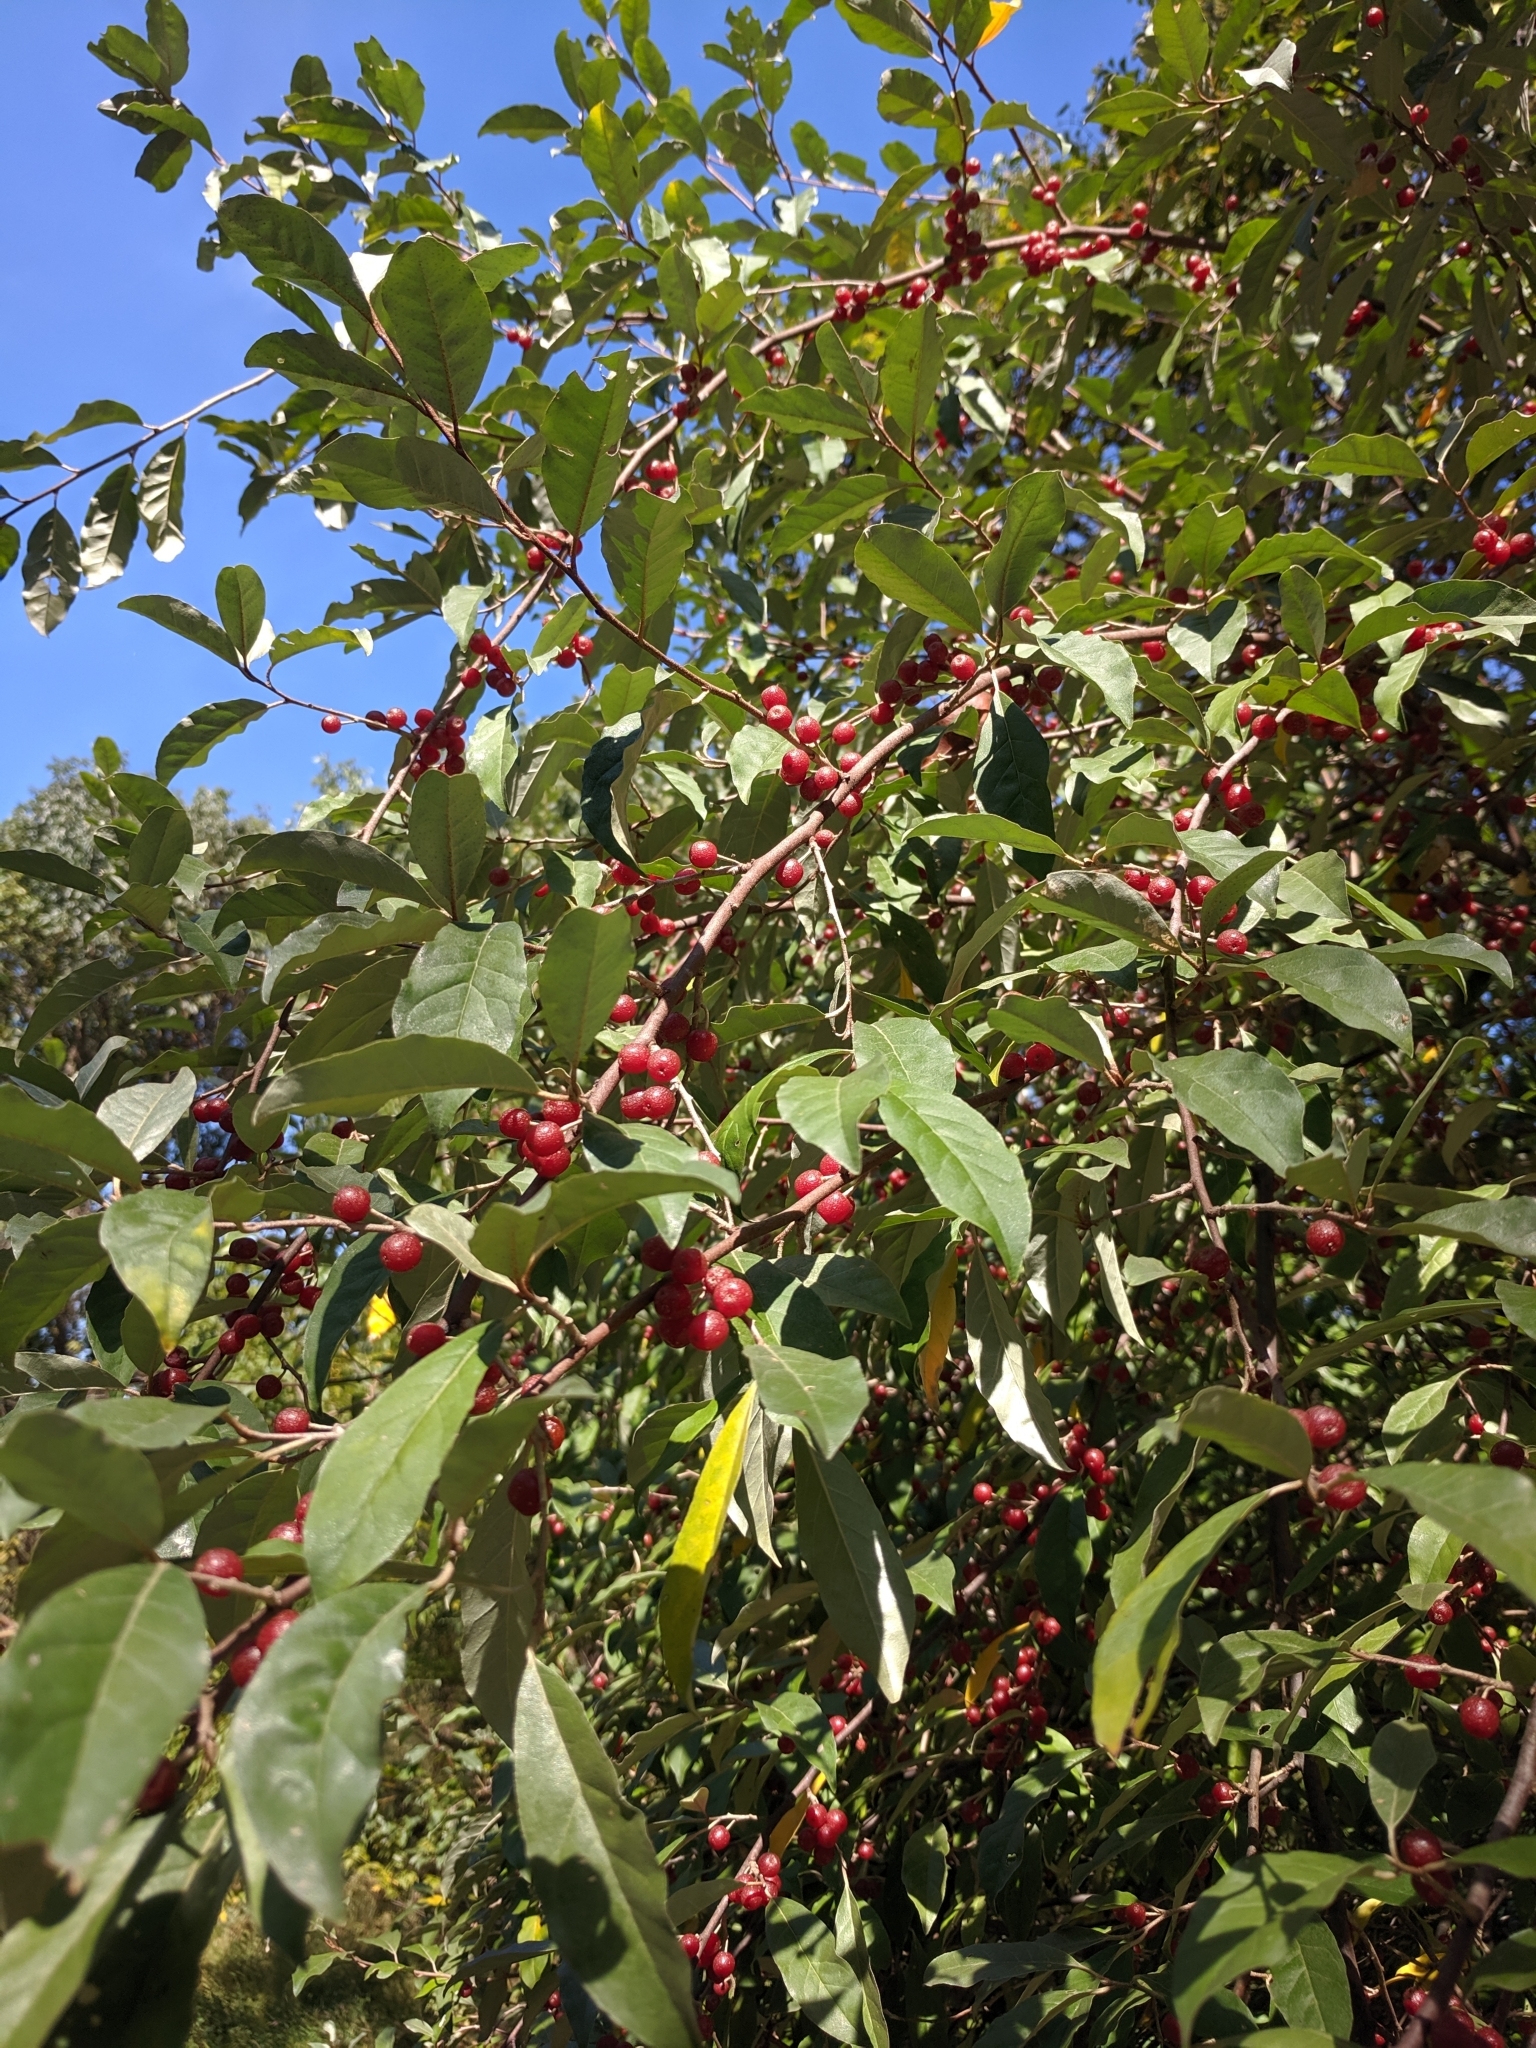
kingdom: Plantae
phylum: Tracheophyta
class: Magnoliopsida
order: Rosales
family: Elaeagnaceae
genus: Elaeagnus
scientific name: Elaeagnus umbellata
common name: Autumn olive
